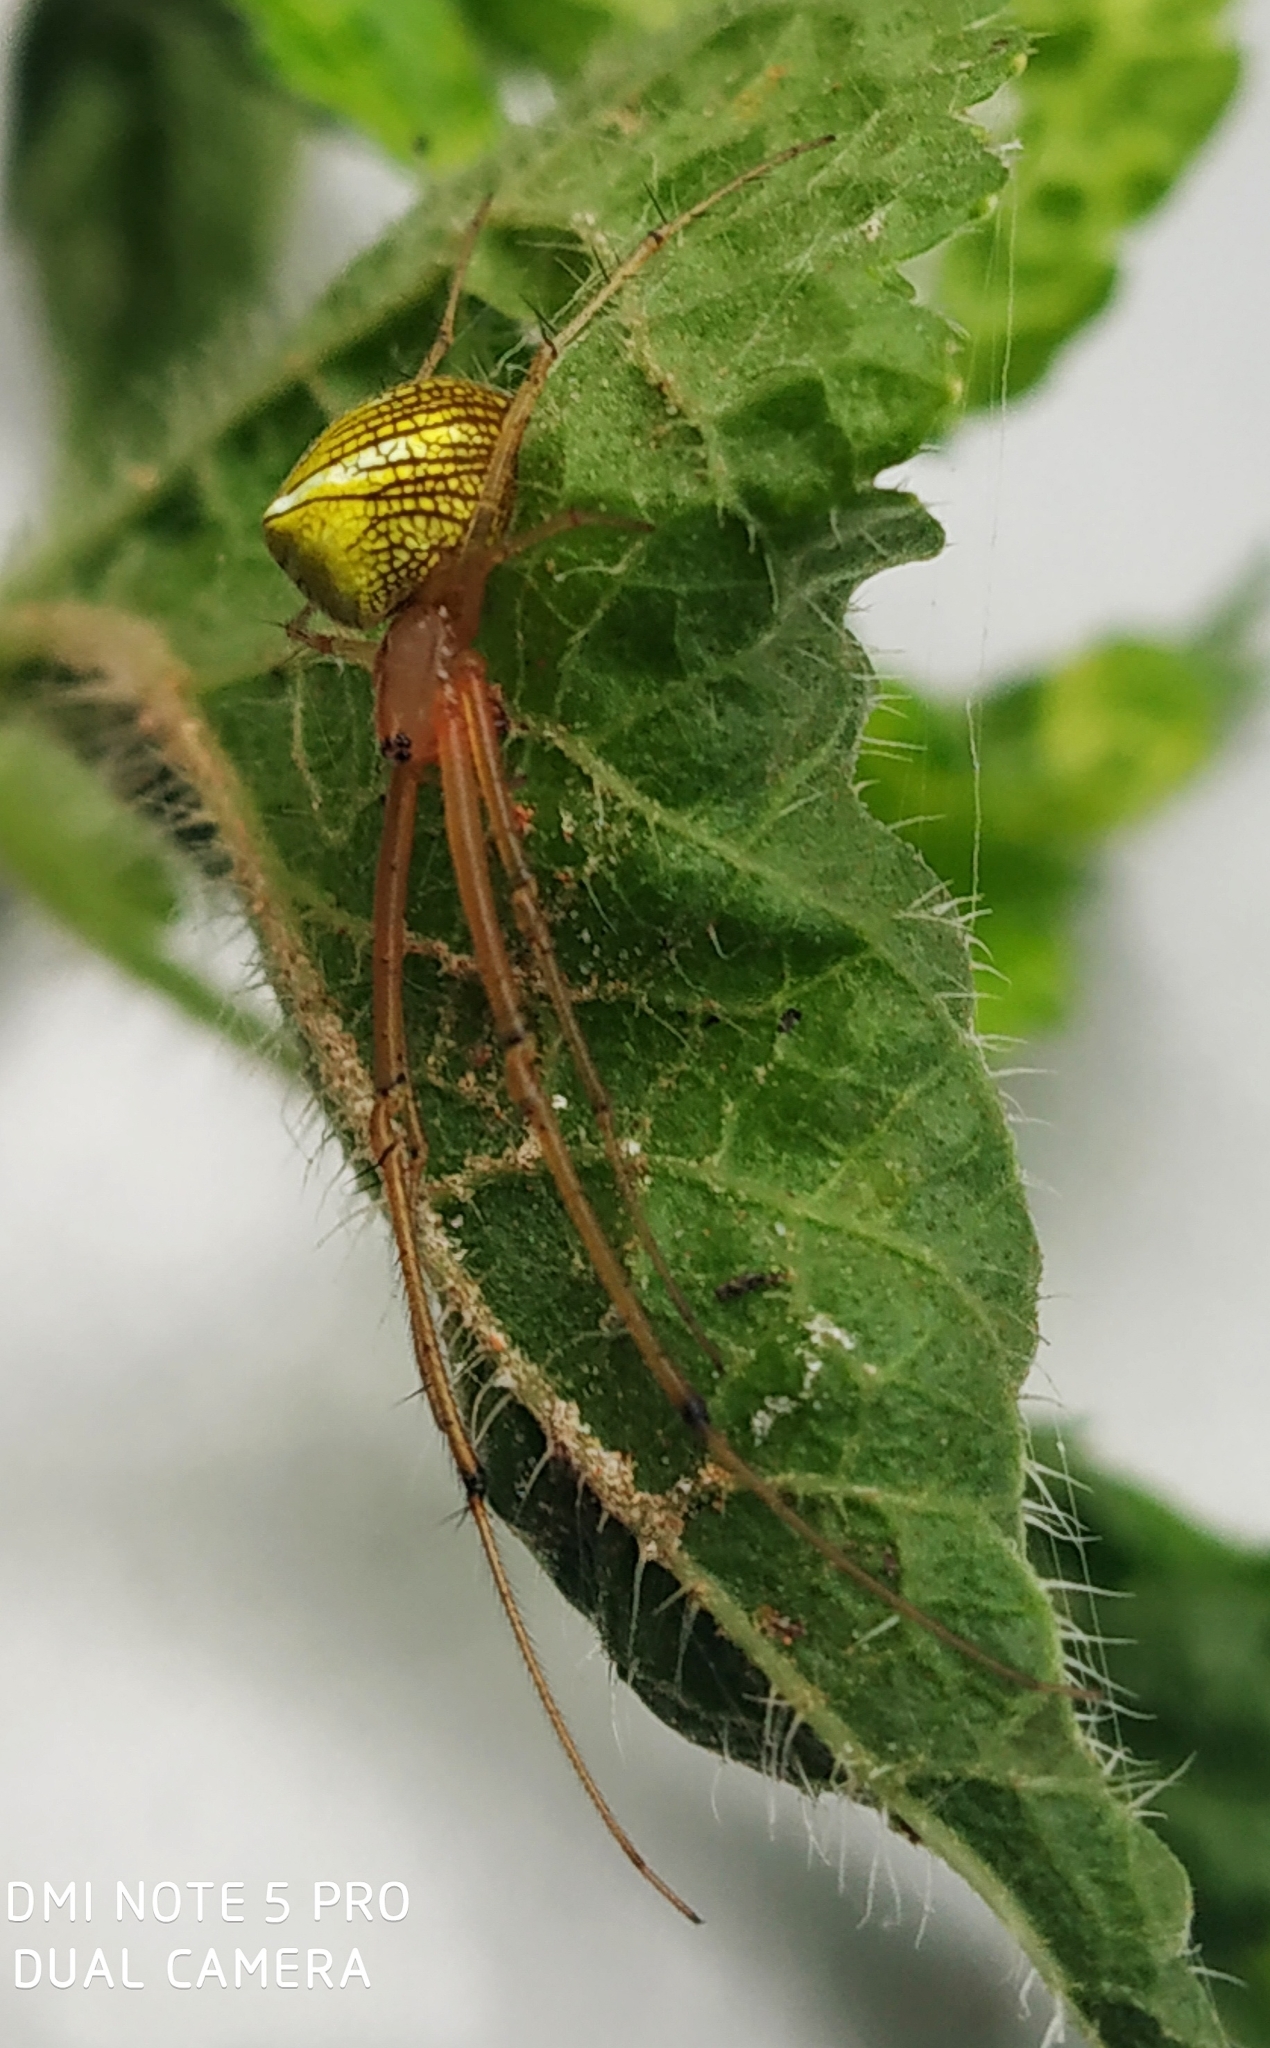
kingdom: Animalia
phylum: Arthropoda
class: Arachnida
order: Araneae
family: Tetragnathidae
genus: Tylorida
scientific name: Tylorida striata
